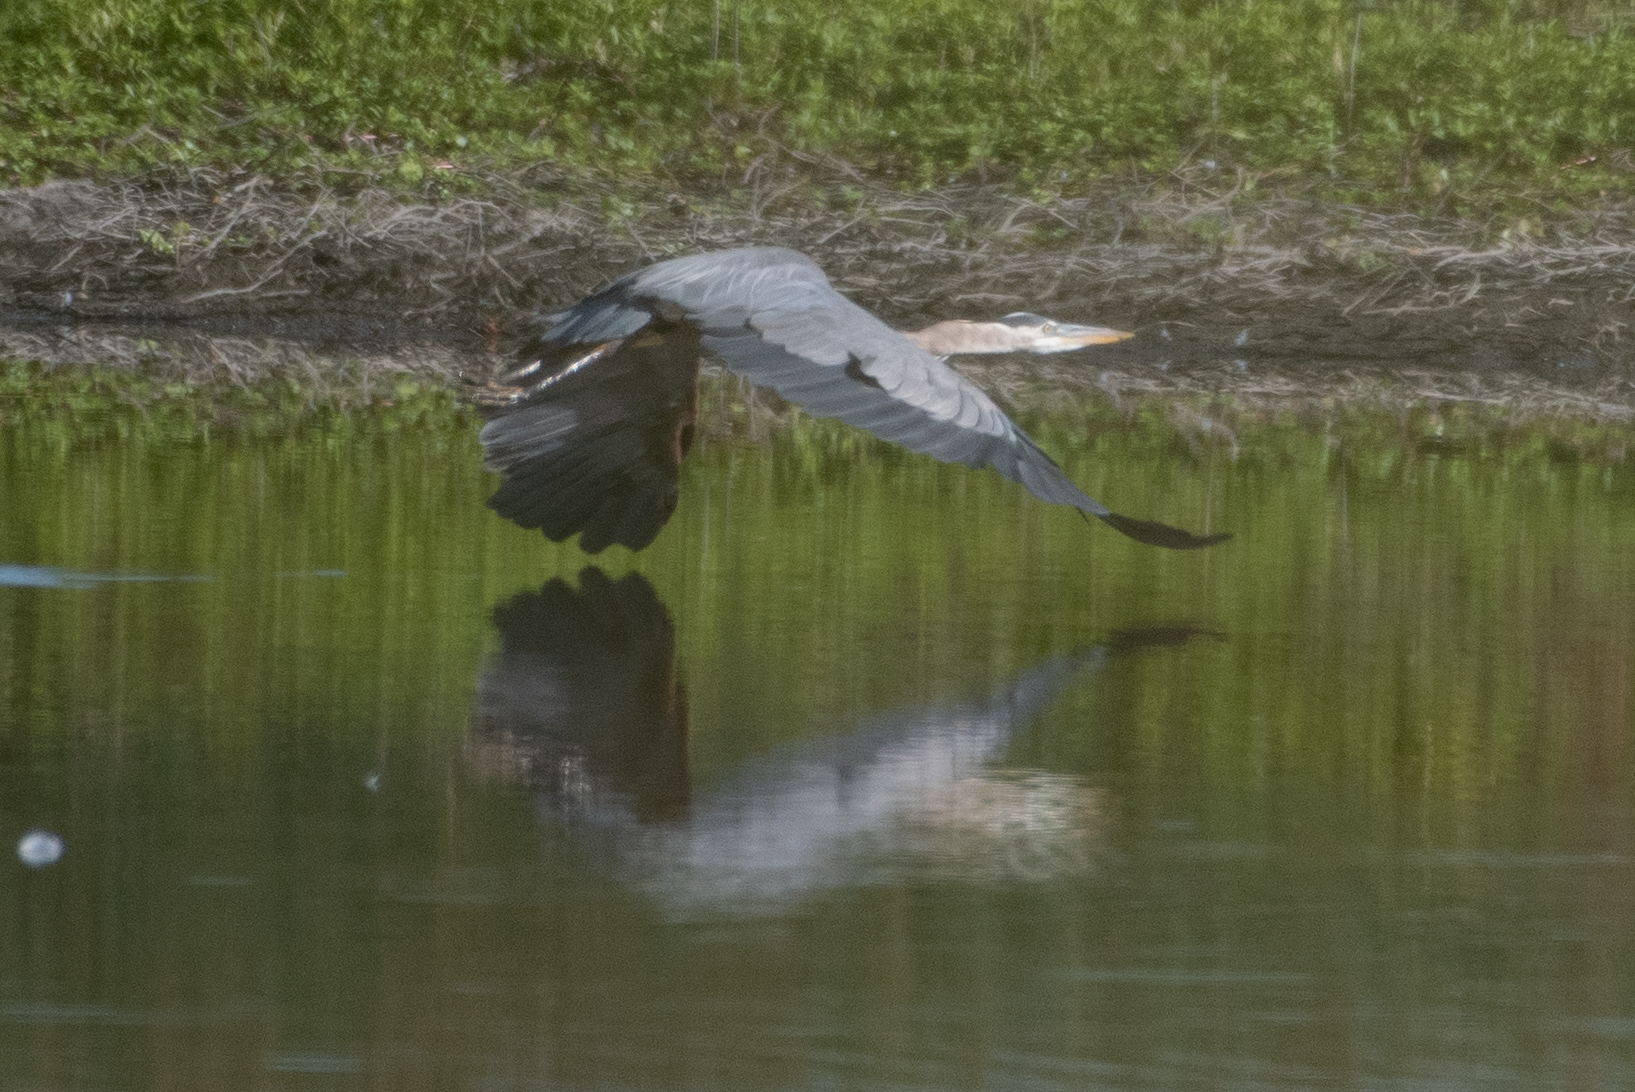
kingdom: Animalia
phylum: Chordata
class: Aves
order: Pelecaniformes
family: Ardeidae
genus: Ardea
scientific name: Ardea herodias
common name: Great blue heron
